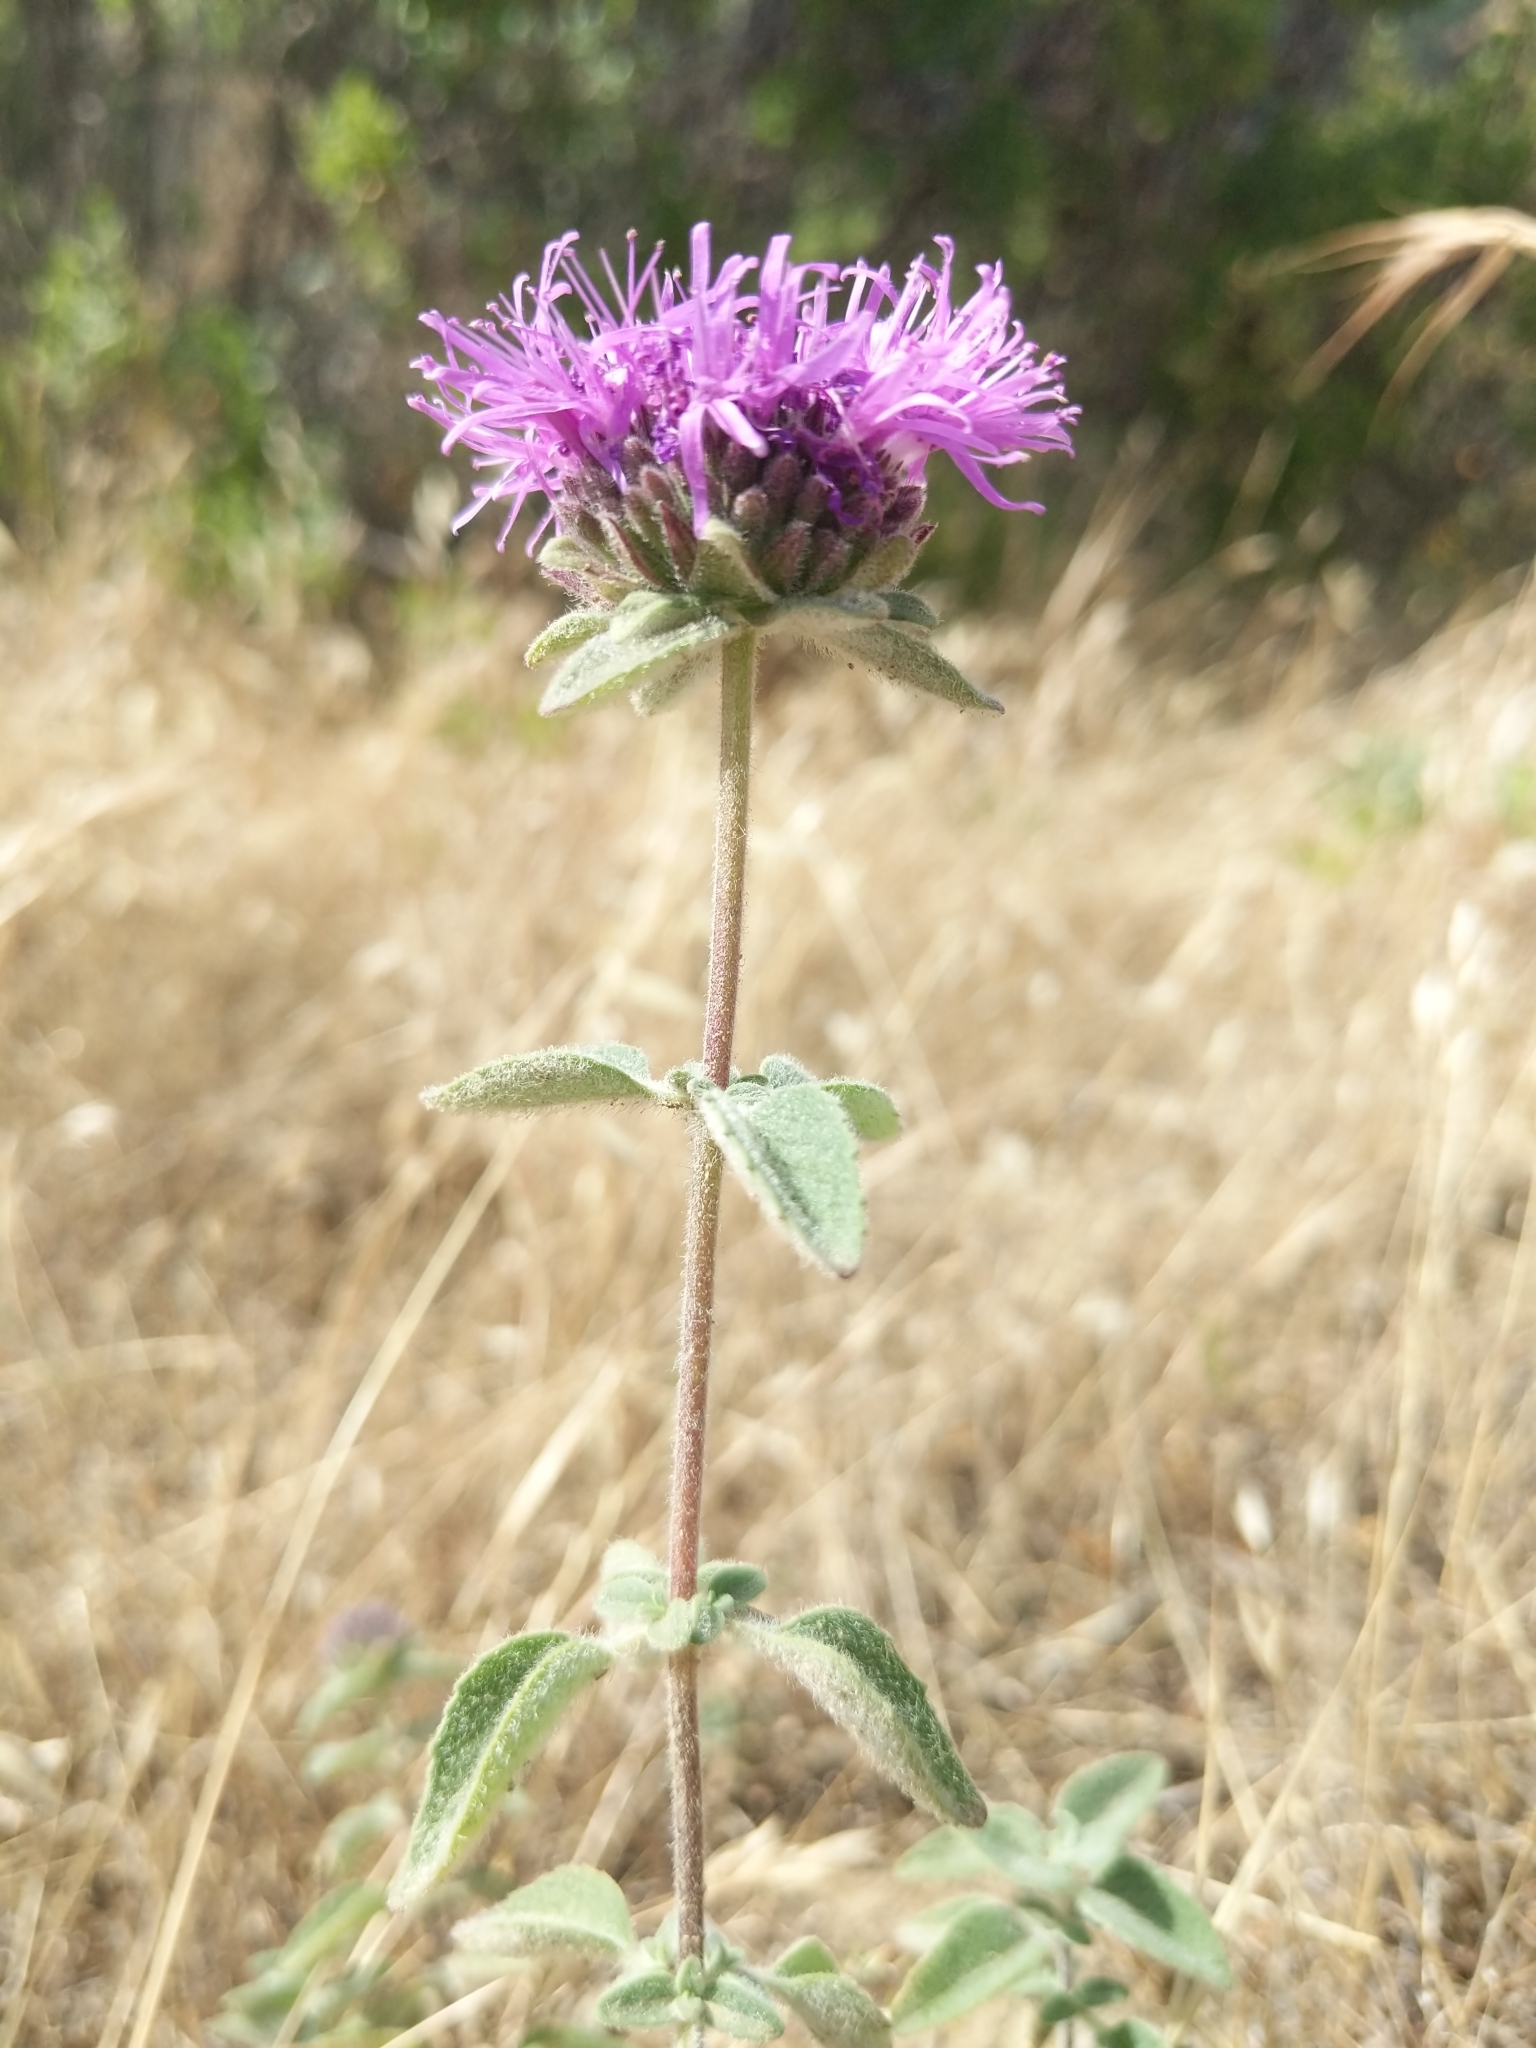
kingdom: Plantae
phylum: Tracheophyta
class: Magnoliopsida
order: Lamiales
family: Lamiaceae
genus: Monardella
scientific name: Monardella odoratissima
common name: Pacific monardella
